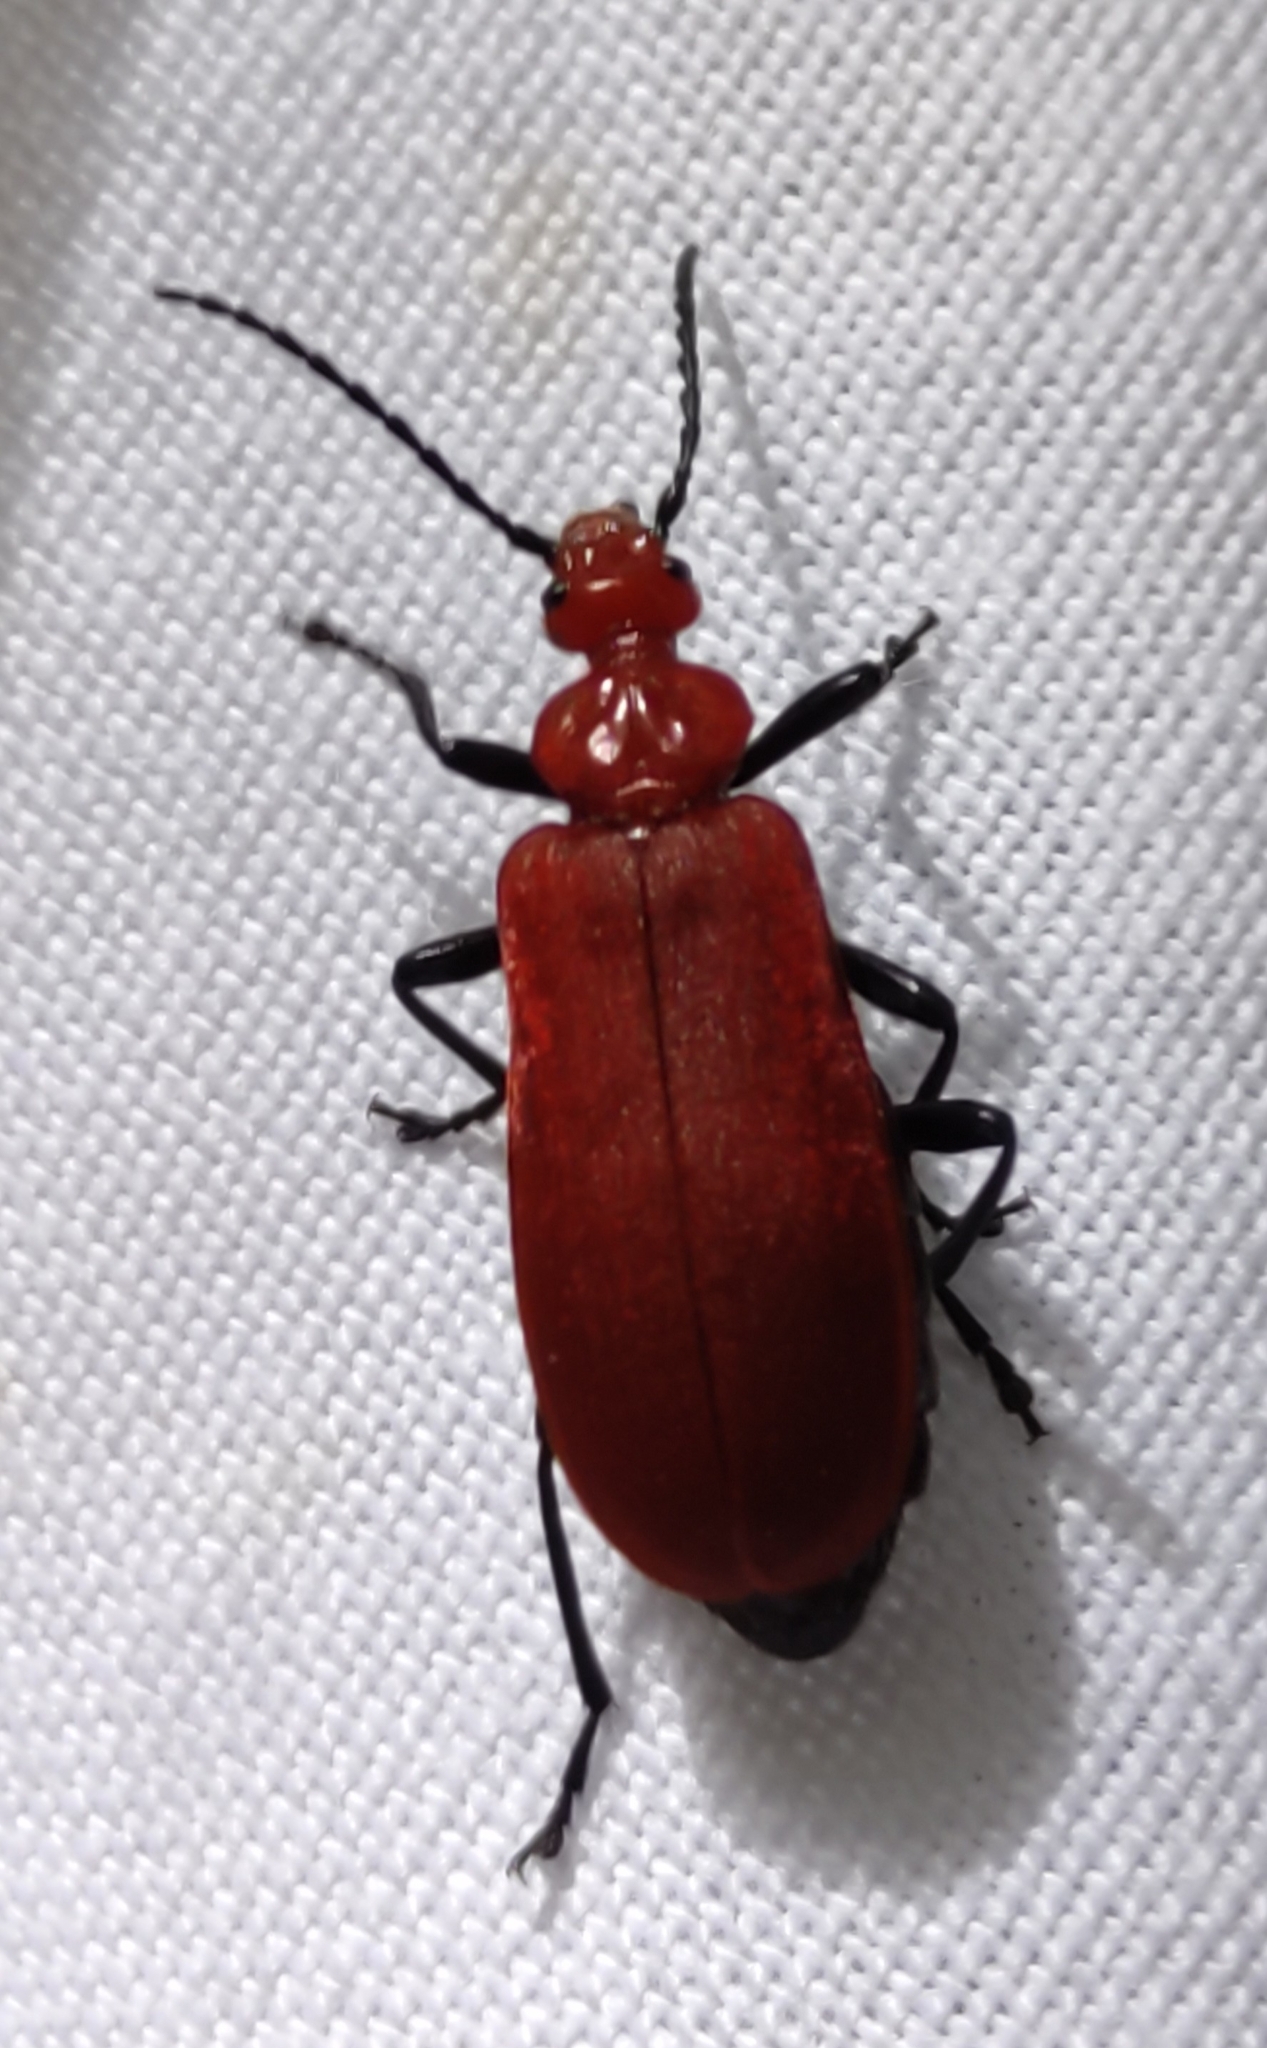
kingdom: Animalia
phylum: Arthropoda
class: Insecta
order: Coleoptera
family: Pyrochroidae
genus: Pyrochroa
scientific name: Pyrochroa serraticornis
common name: Red-headed cardinal beetle
